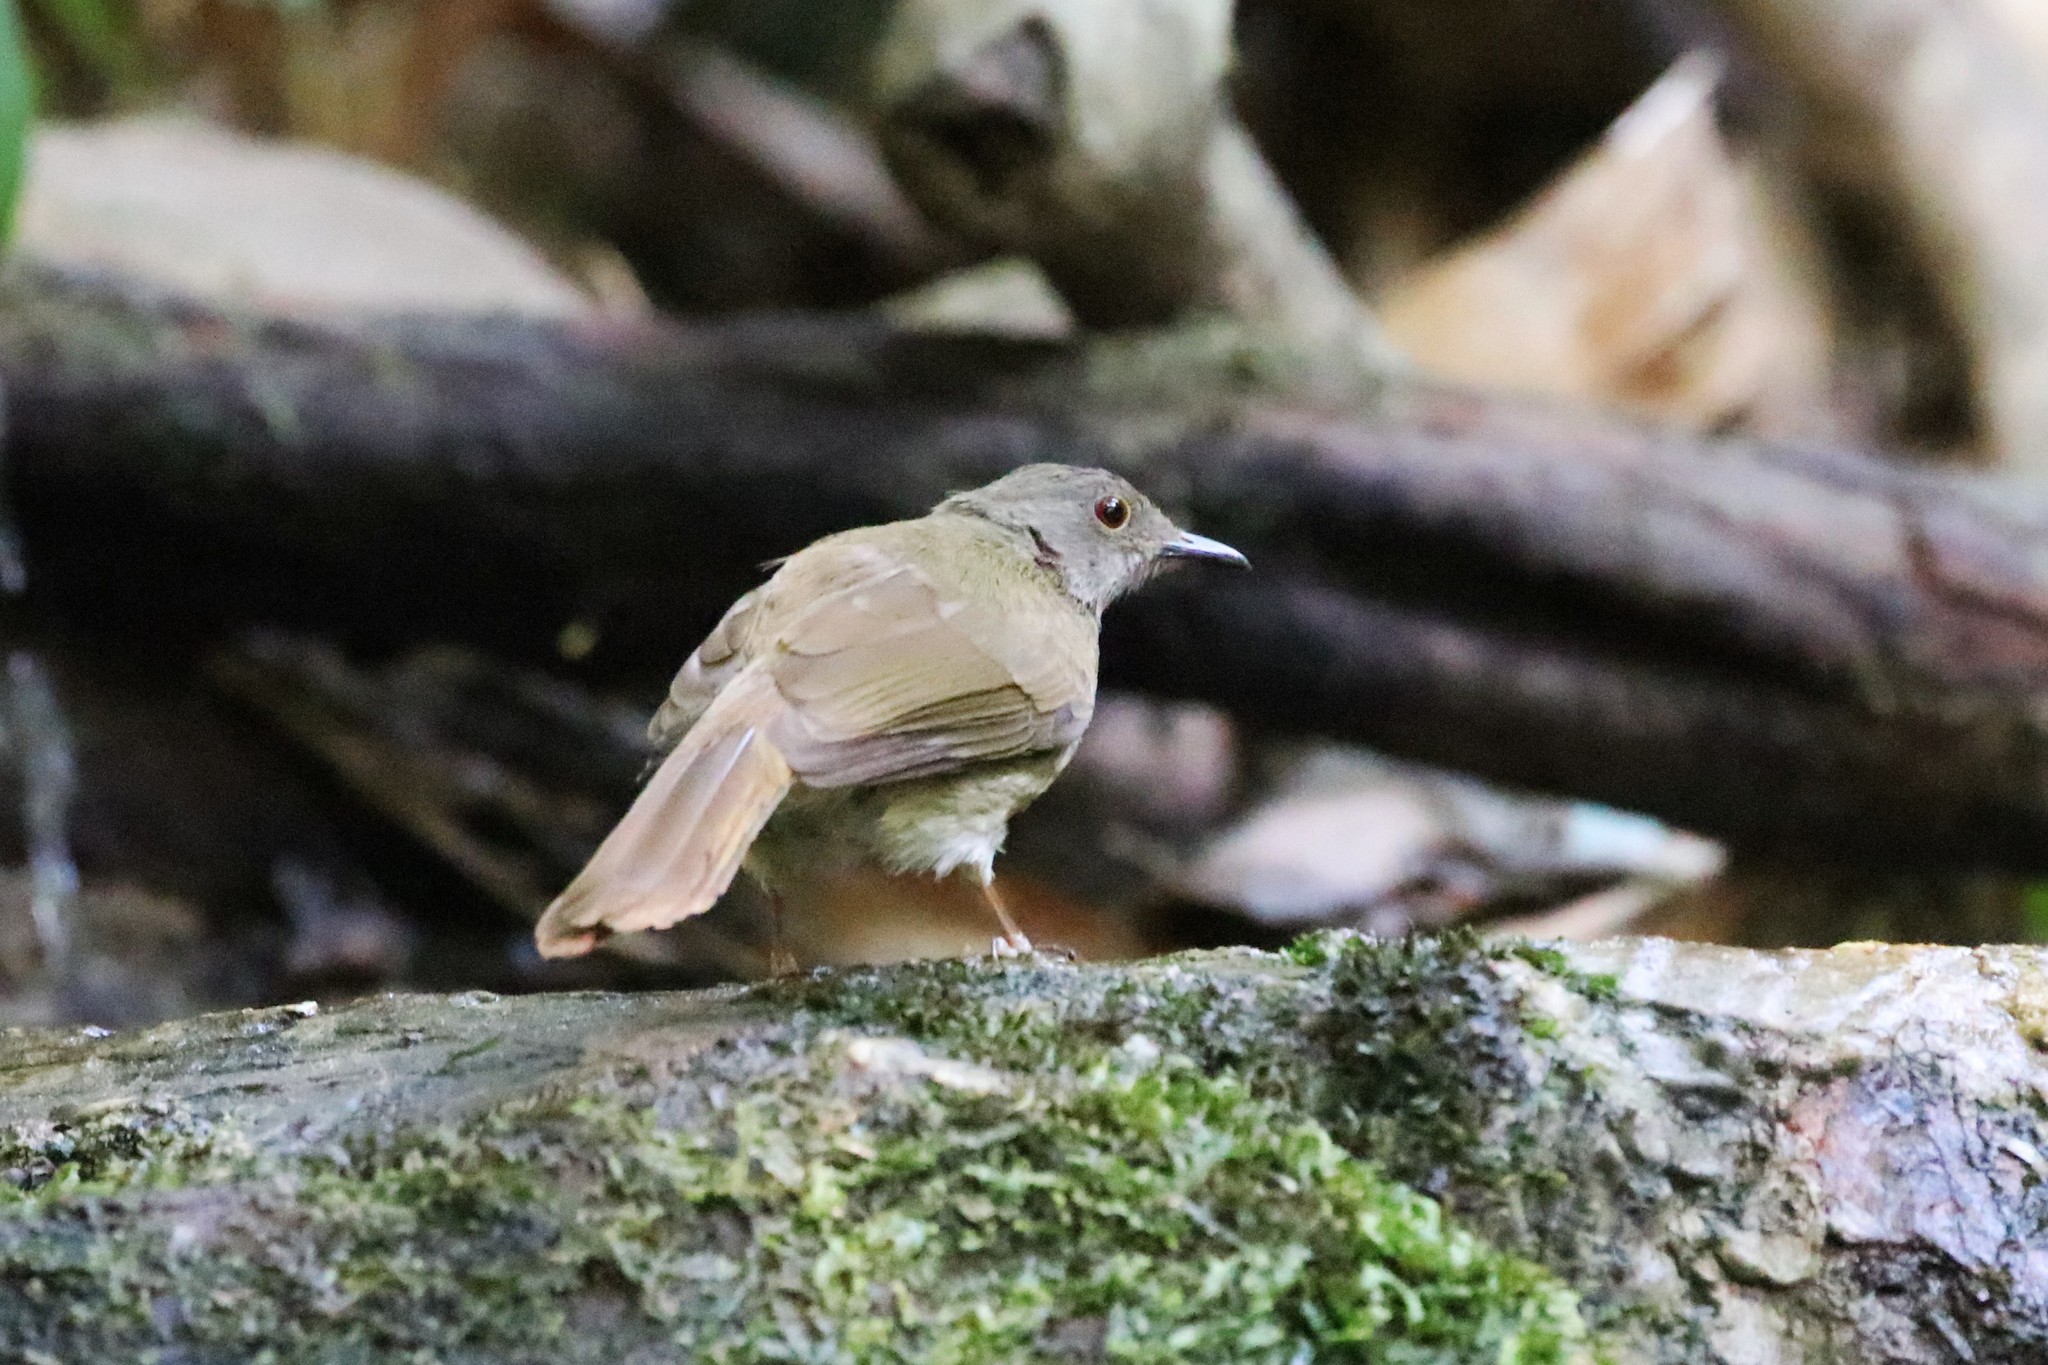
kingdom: Animalia
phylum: Chordata
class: Aves
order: Passeriformes
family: Pycnonotidae
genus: Rubigula
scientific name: Rubigula erythropthalmos
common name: Spectacled bulbul
